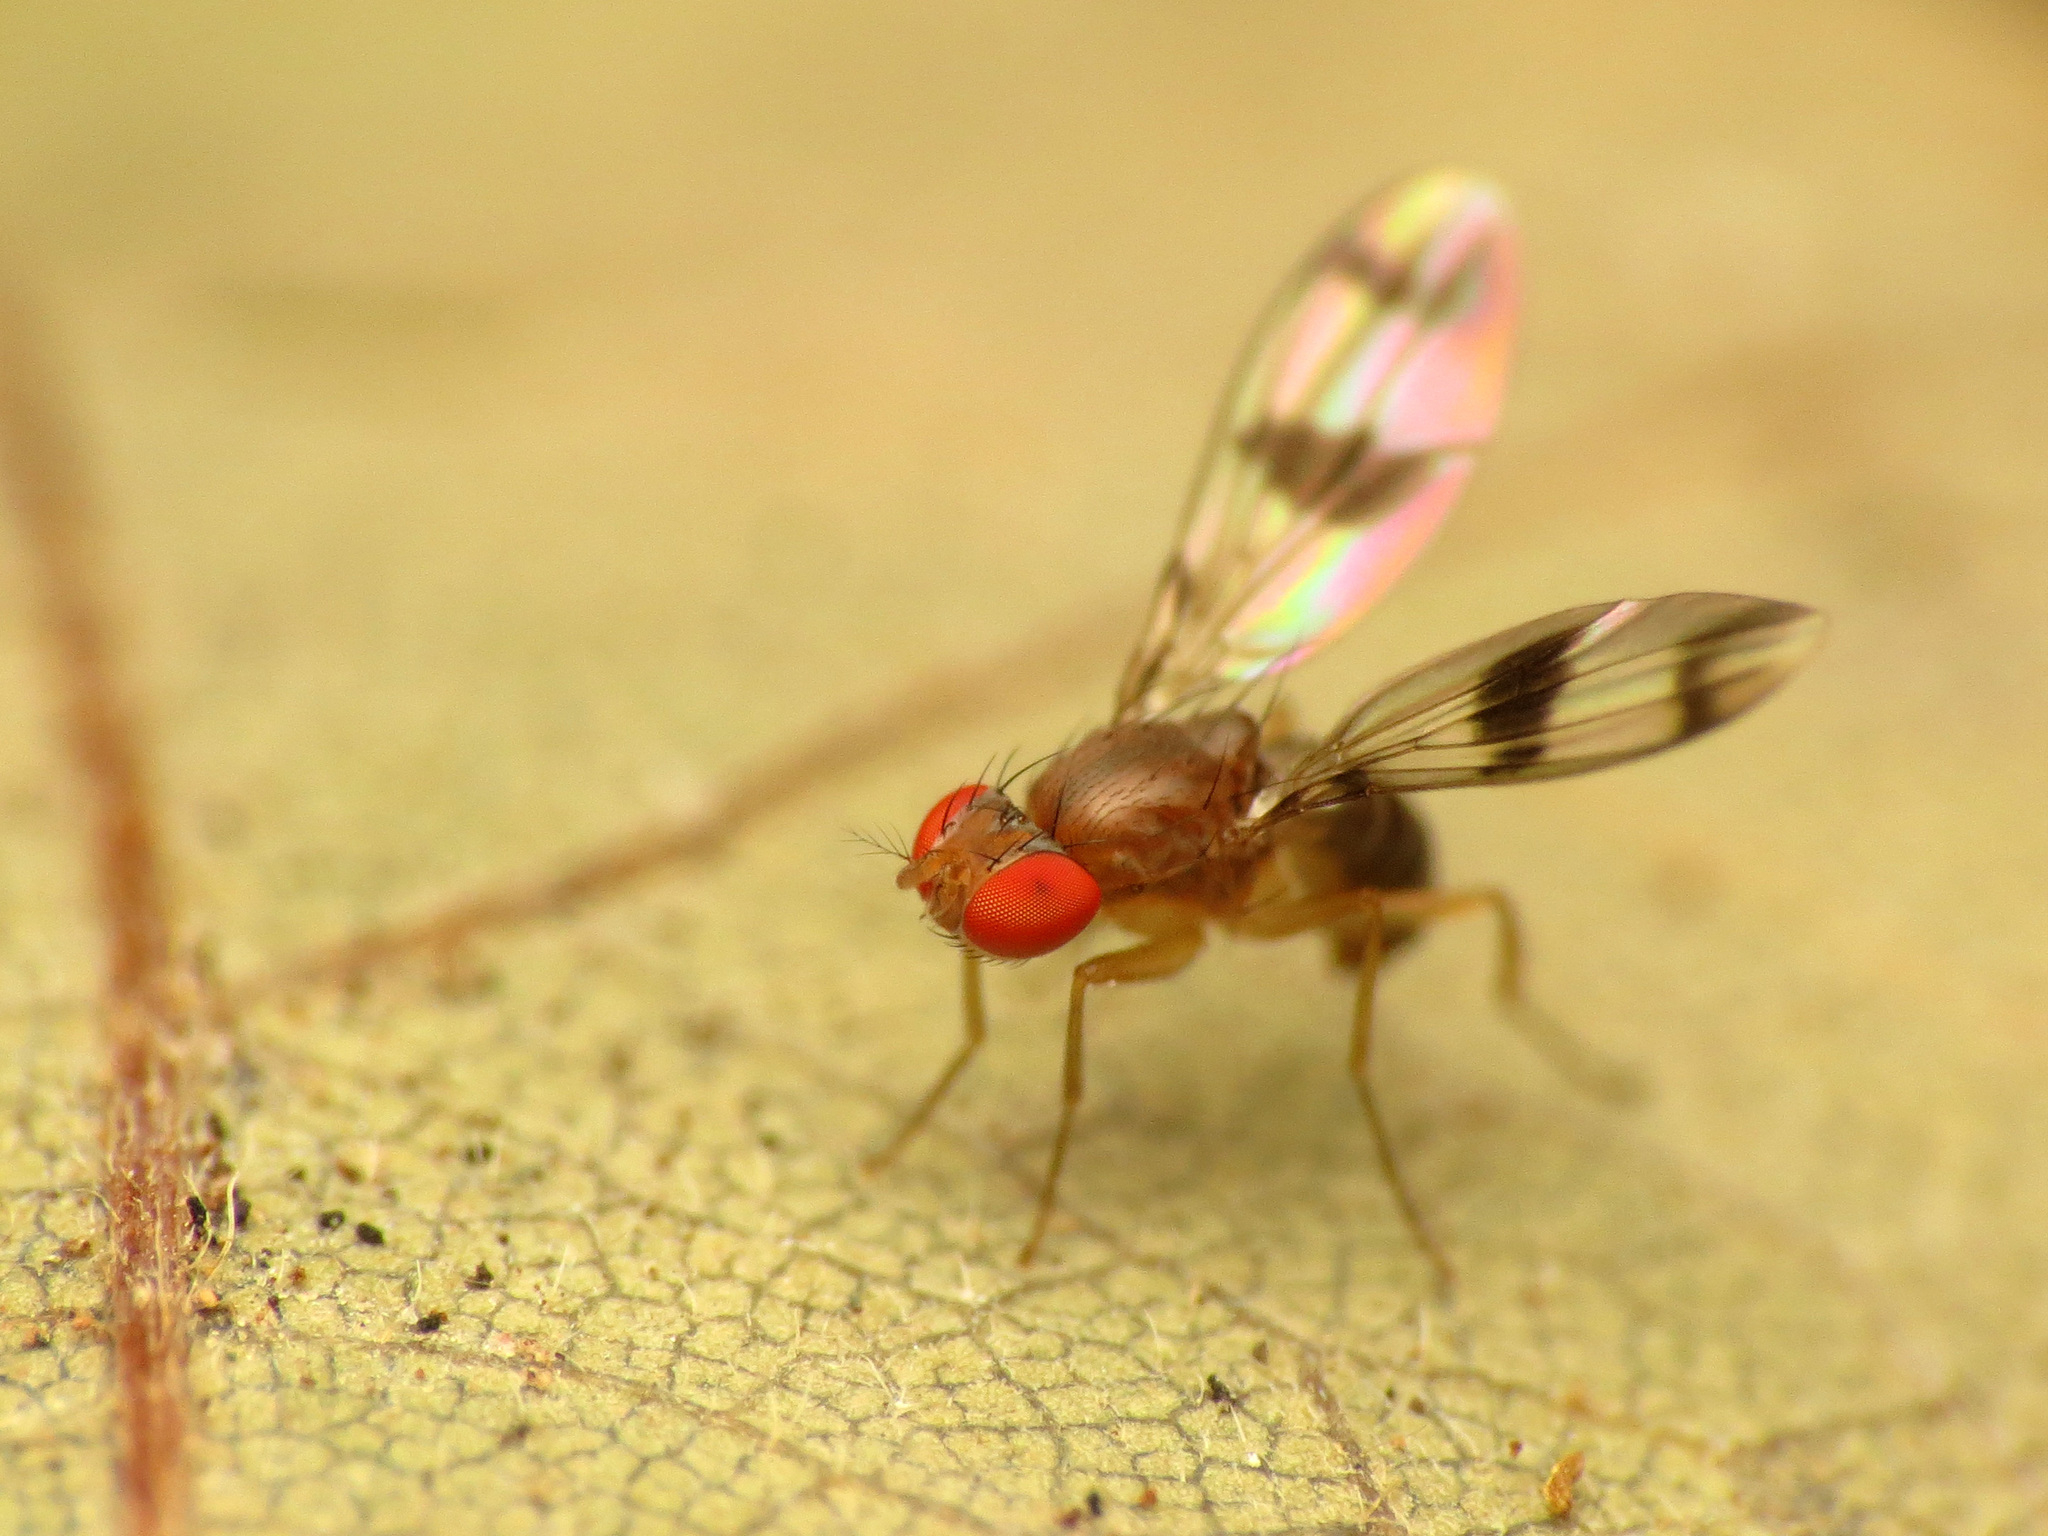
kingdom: Animalia
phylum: Arthropoda
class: Insecta
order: Diptera
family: Drosophilidae
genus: Chymomyza
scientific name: Chymomyza amoena
